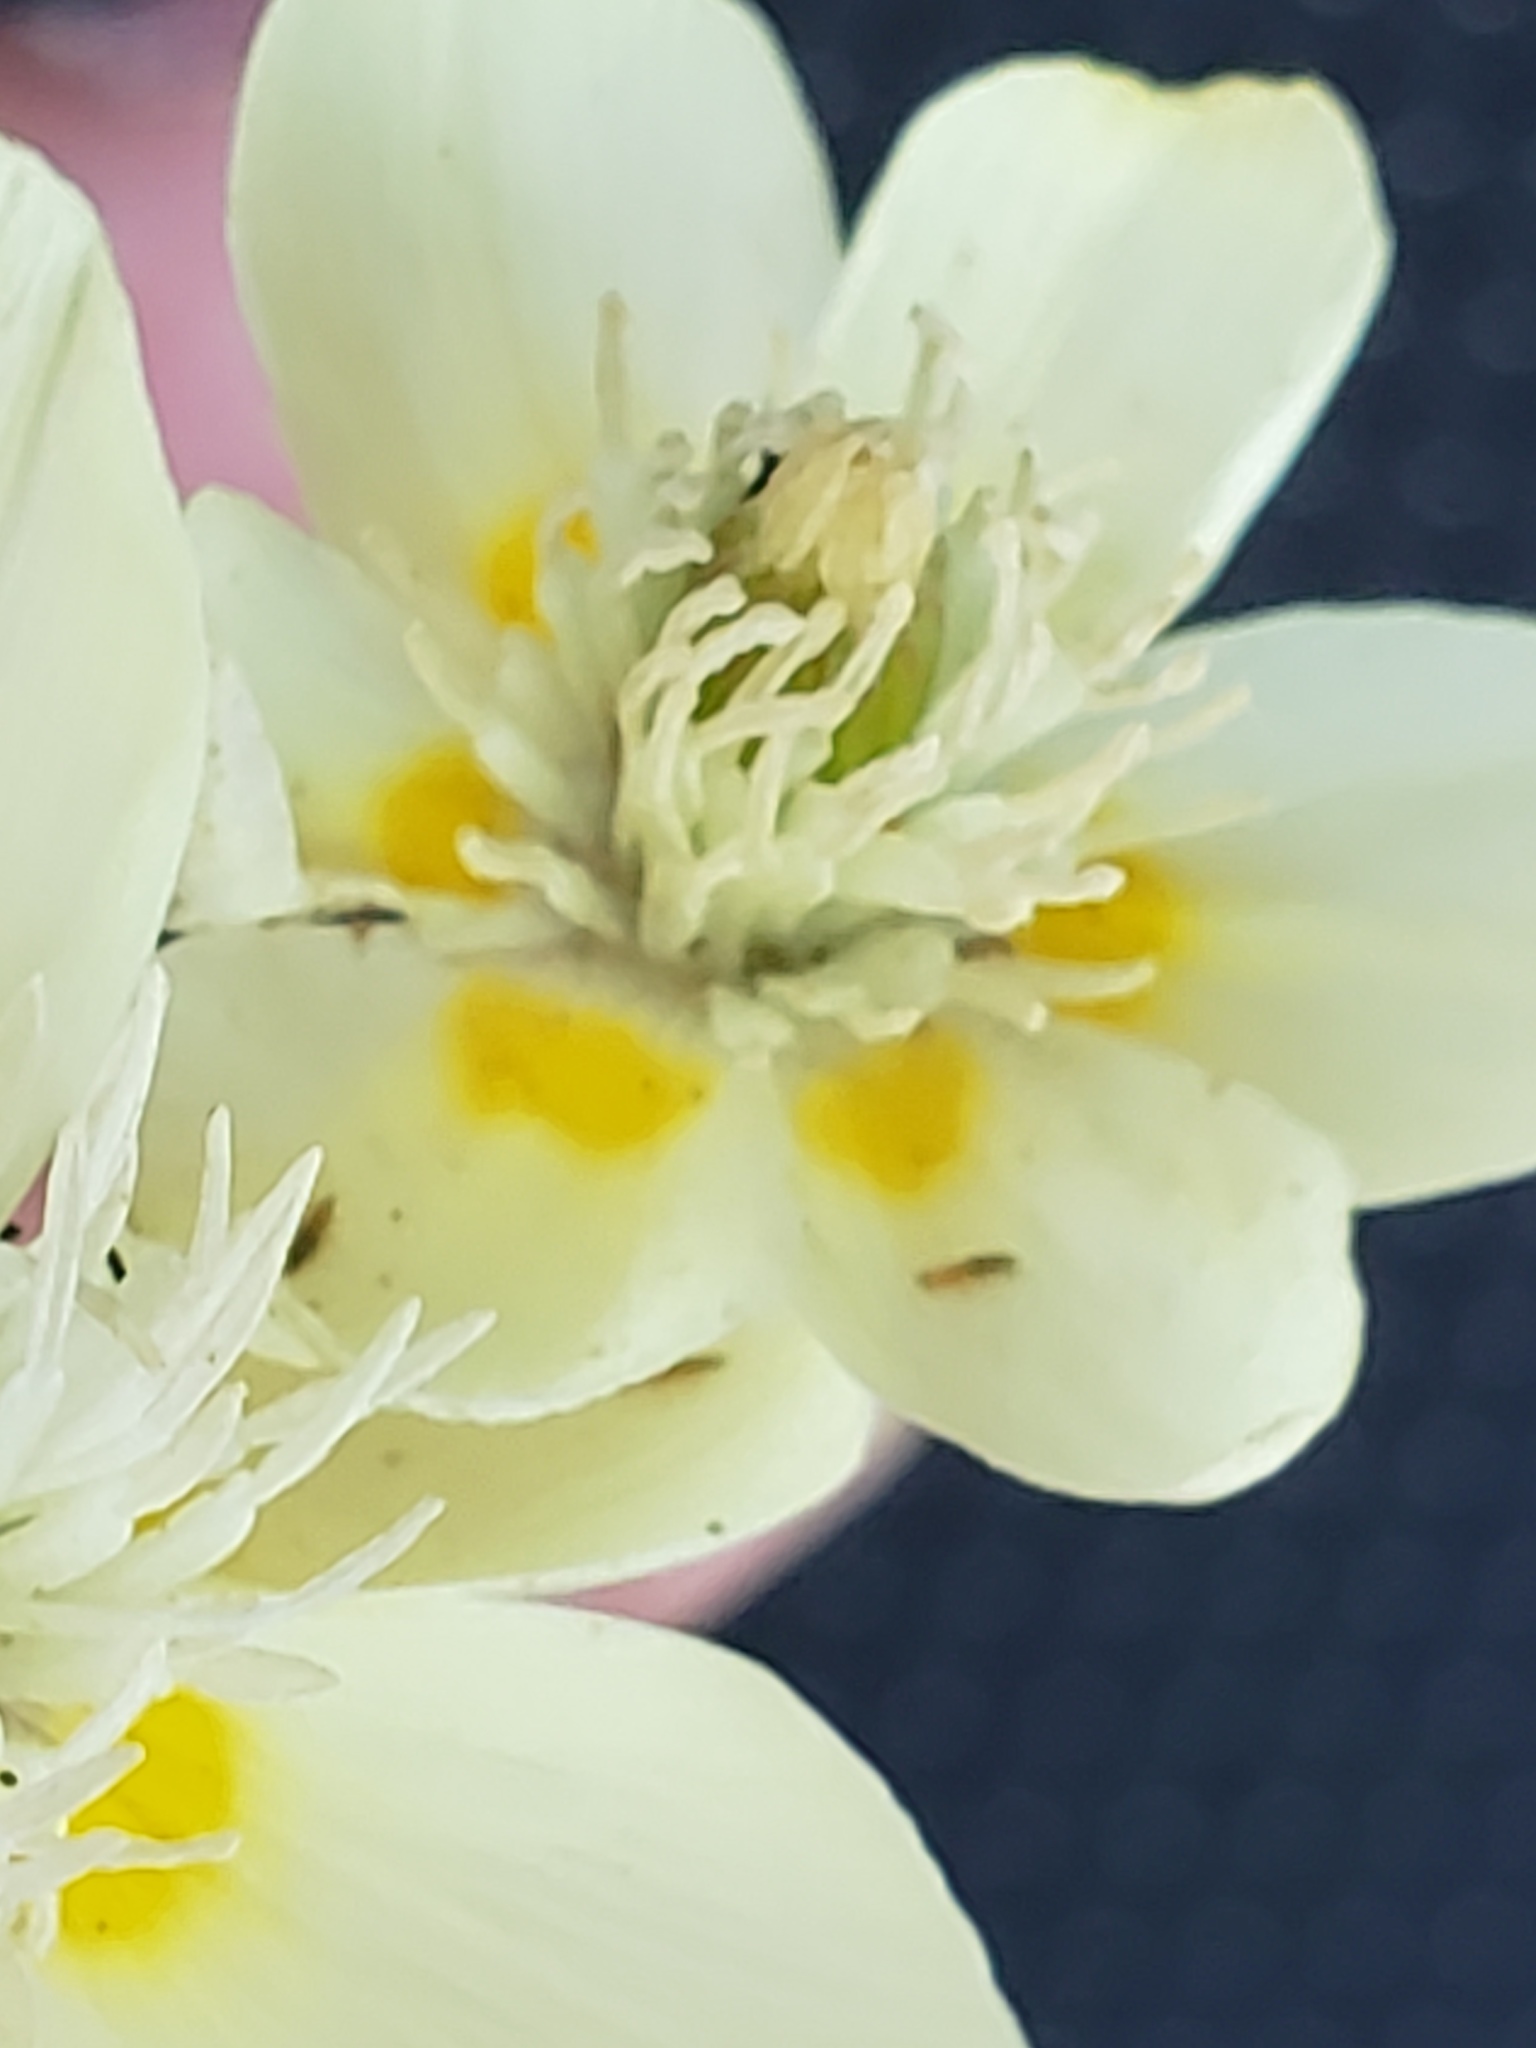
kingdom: Plantae
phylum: Tracheophyta
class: Magnoliopsida
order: Ranunculales
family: Papaveraceae
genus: Platystemon
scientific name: Platystemon californicus
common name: Cream-cups
